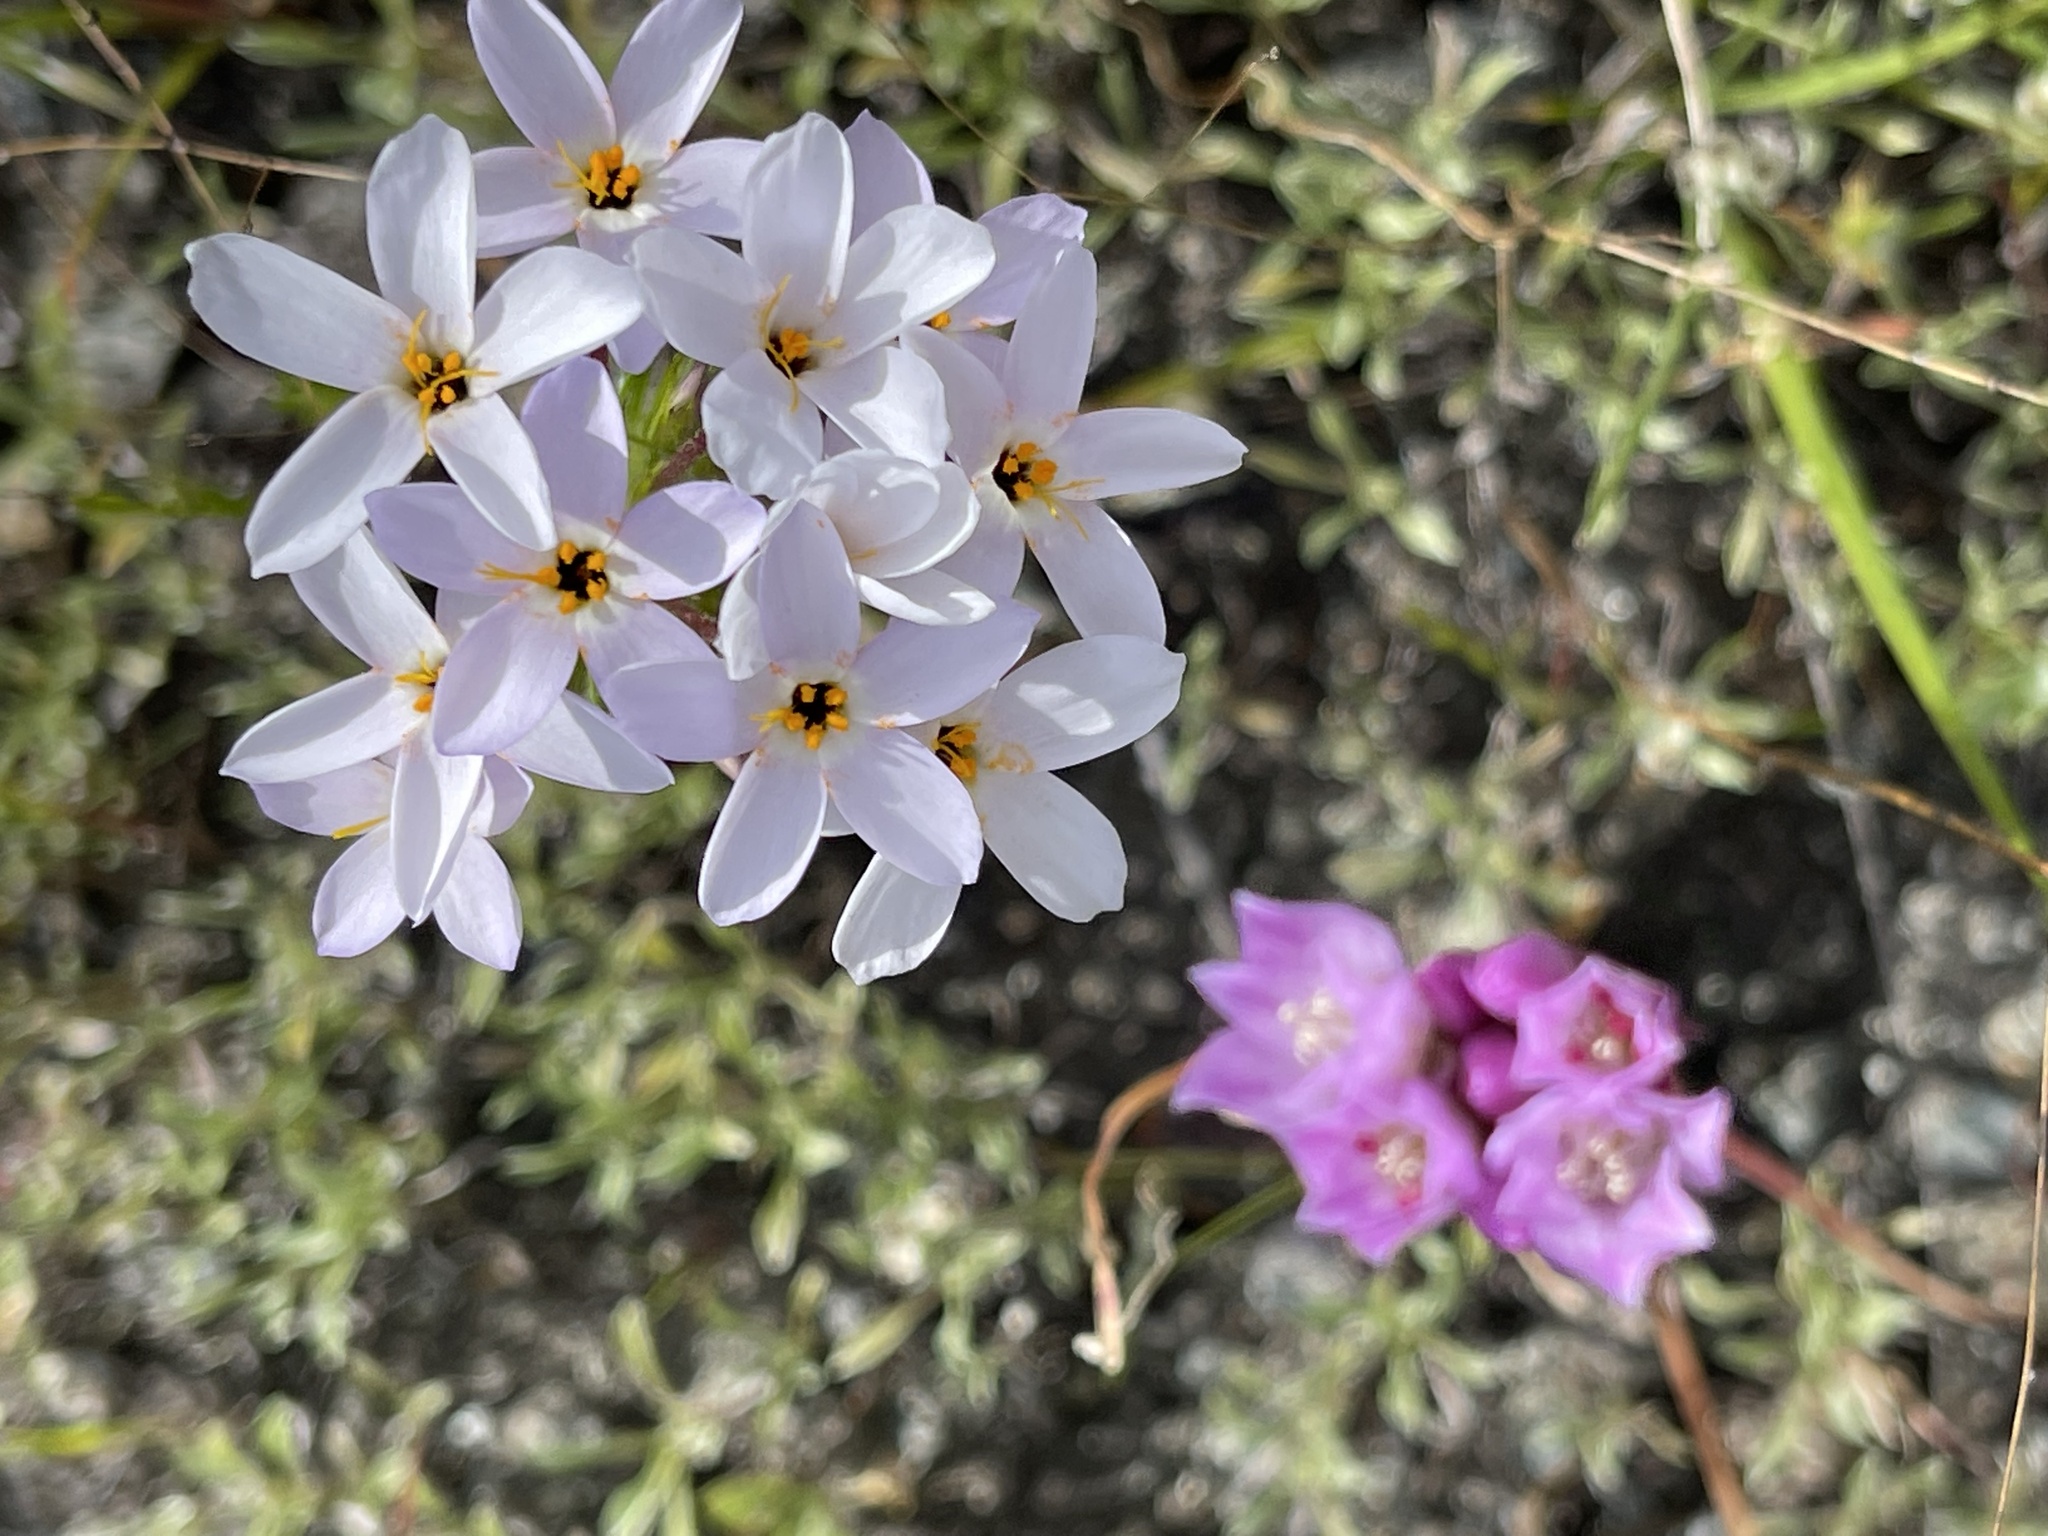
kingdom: Plantae
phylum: Tracheophyta
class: Magnoliopsida
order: Ericales
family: Polemoniaceae
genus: Leptosiphon
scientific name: Leptosiphon androsaceus
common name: False babystars
